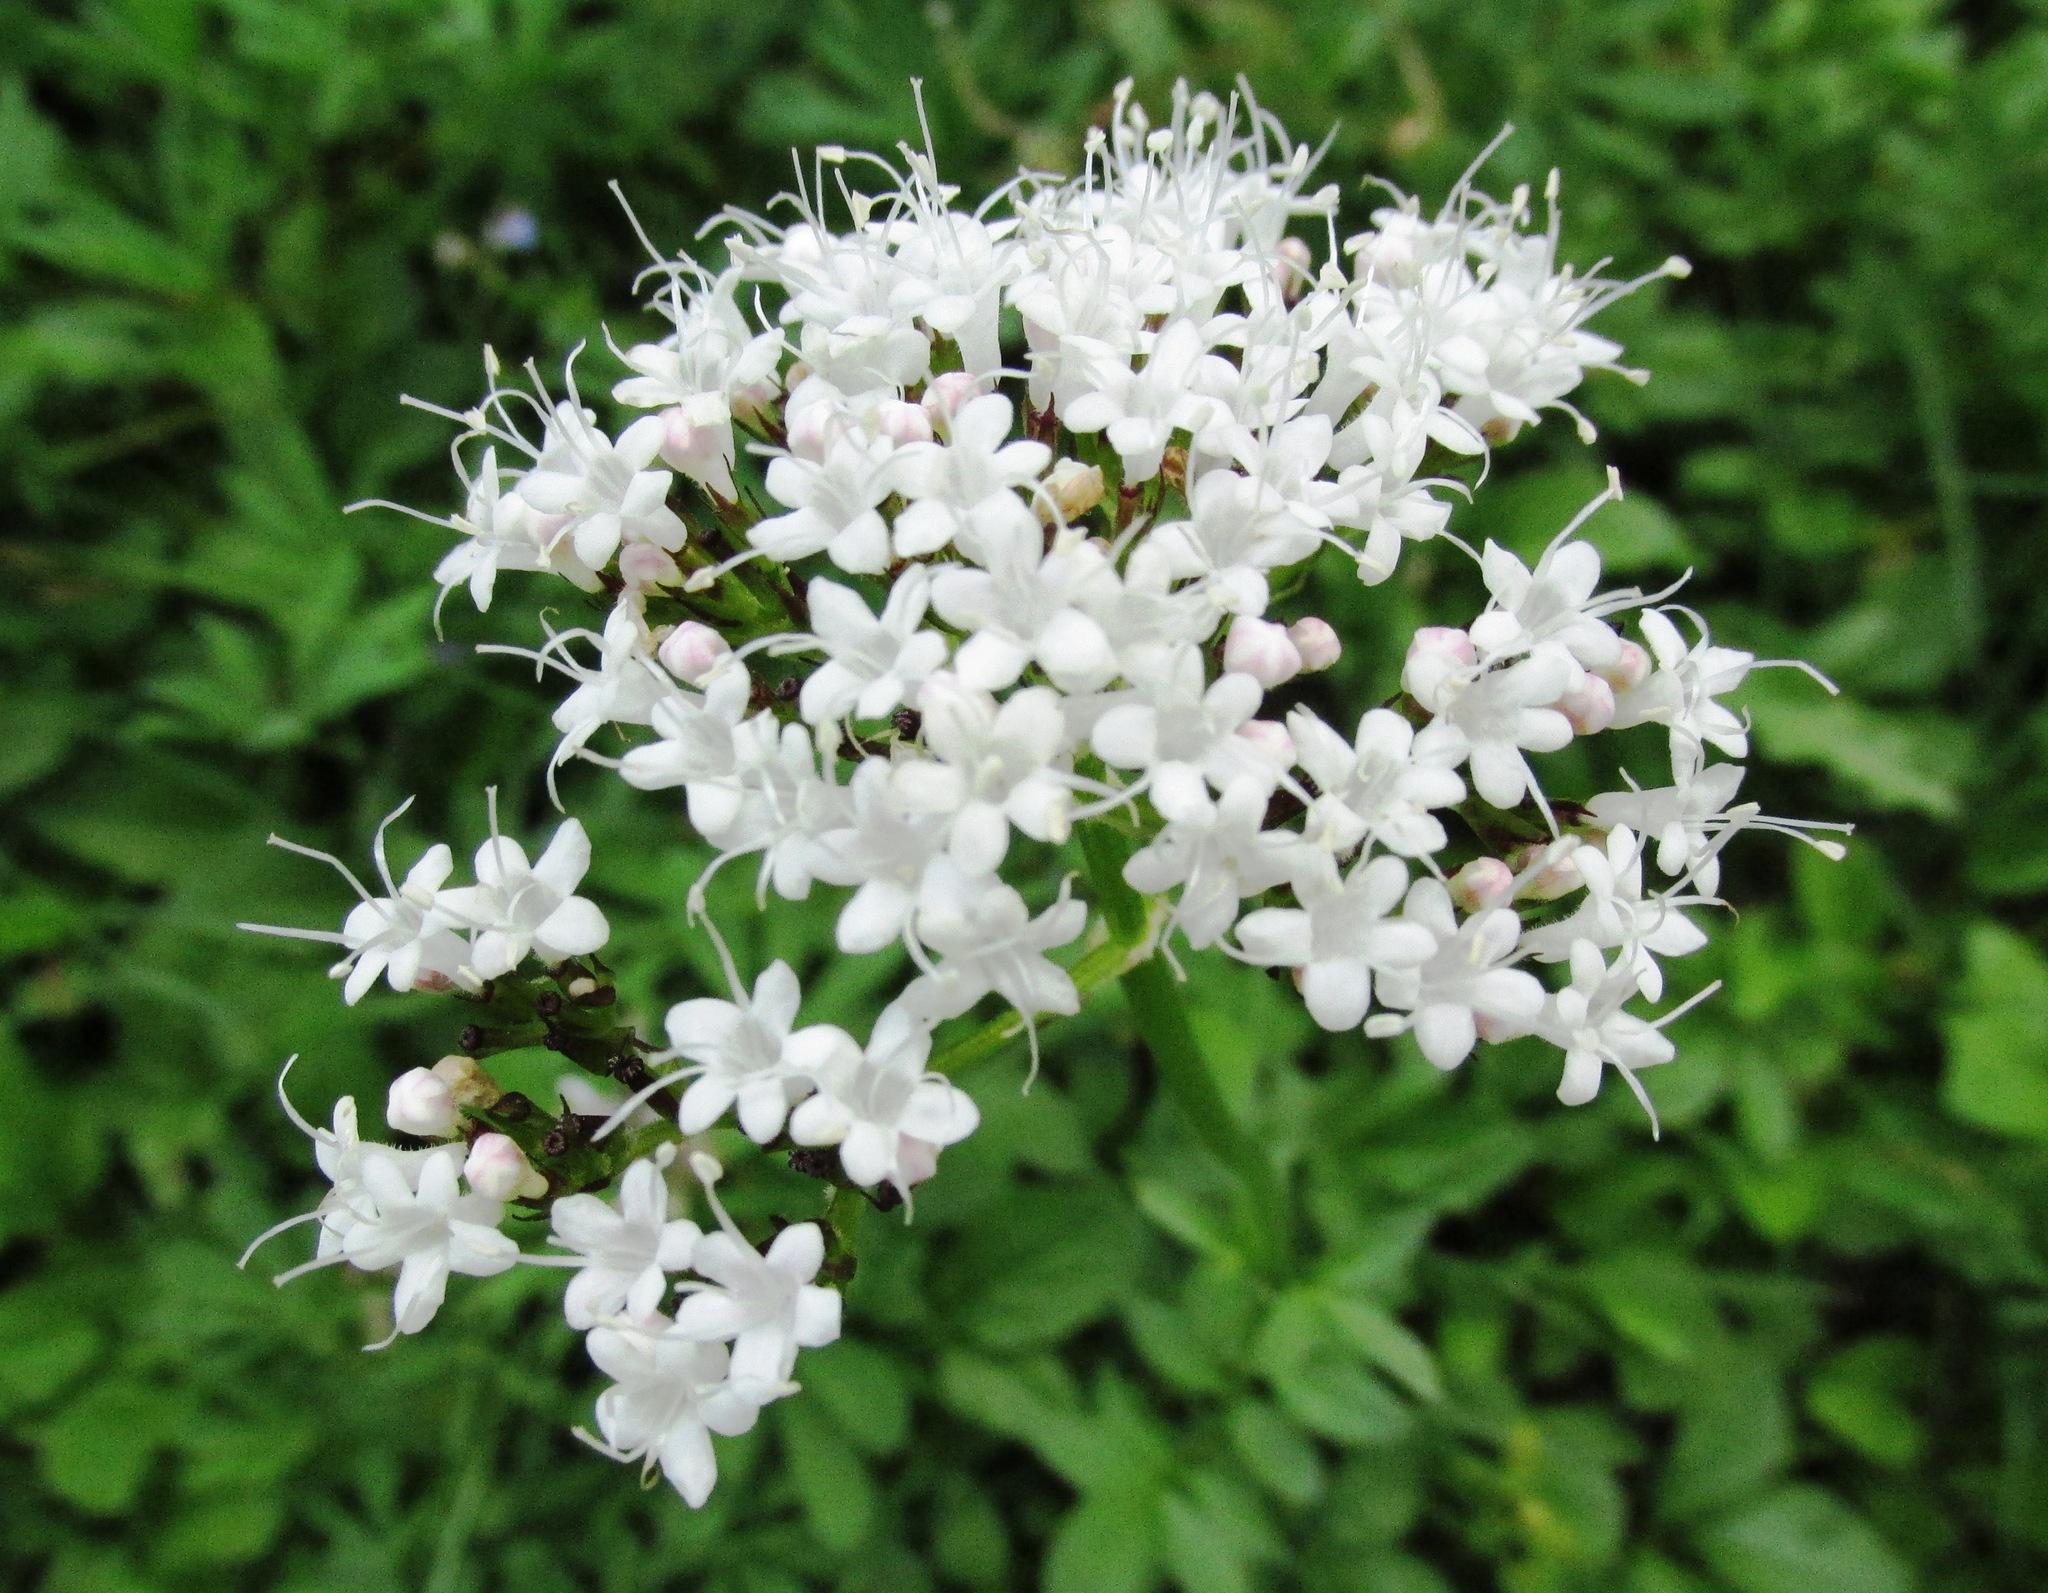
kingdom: Plantae
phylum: Tracheophyta
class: Magnoliopsida
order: Dipsacales
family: Caprifoliaceae
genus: Valeriana
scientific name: Valeriana sitchensis
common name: Pacific valerian
